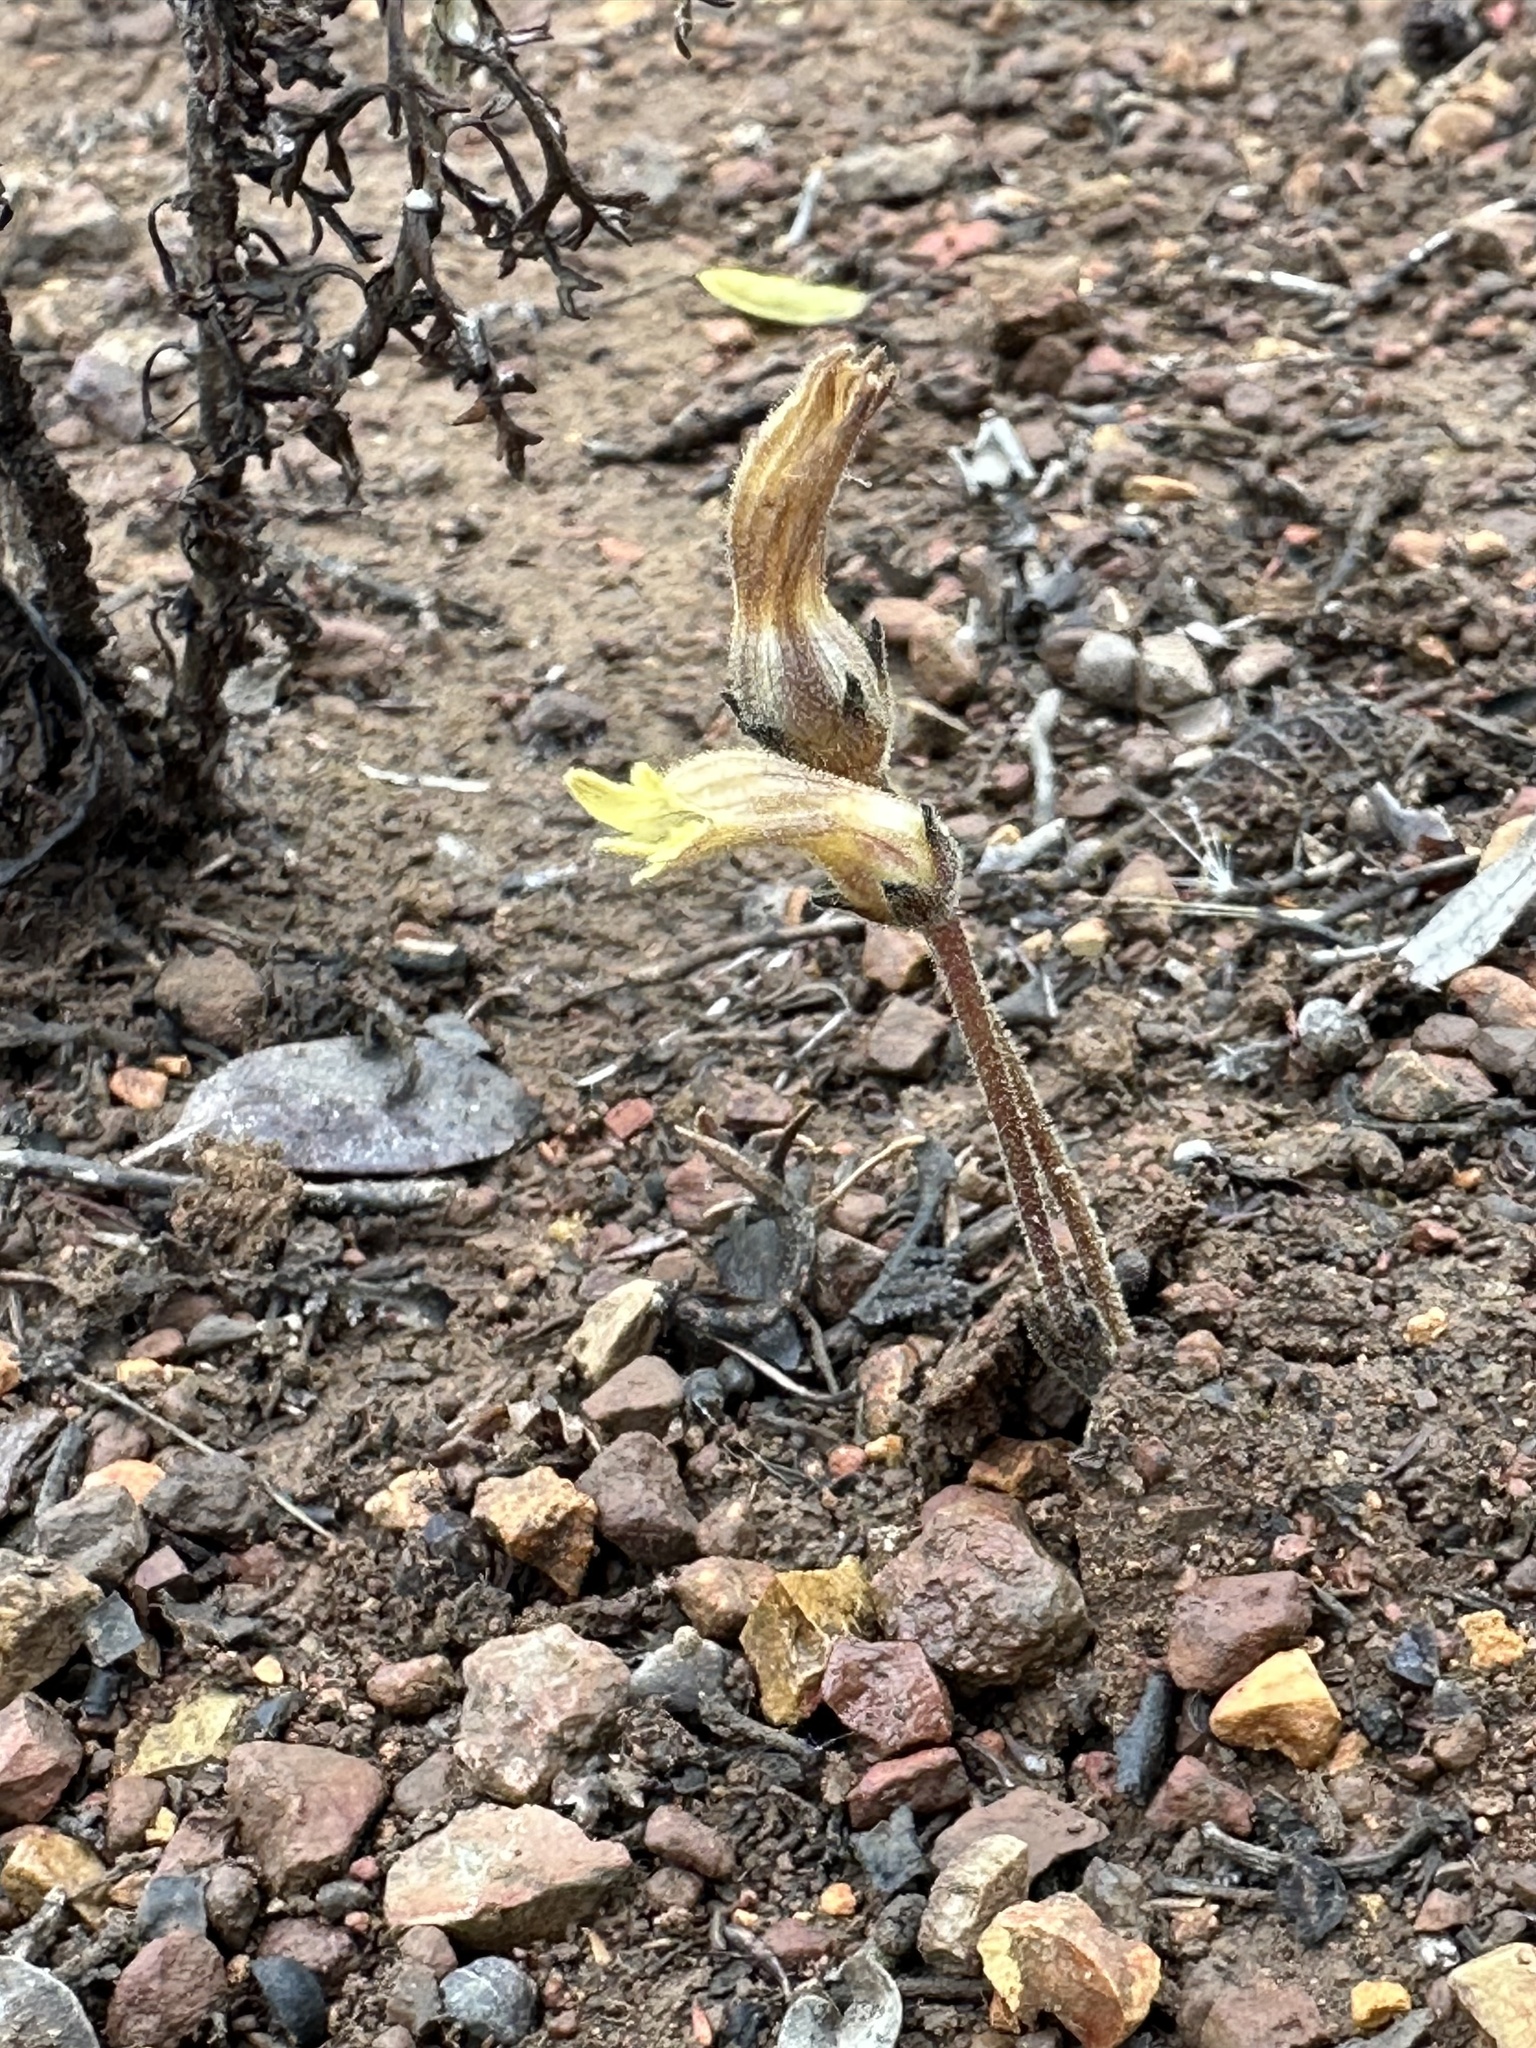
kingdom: Plantae
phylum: Tracheophyta
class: Magnoliopsida
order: Lamiales
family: Orobanchaceae
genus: Aphyllon
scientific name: Aphyllon franciscanum
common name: San francisco broomrape
